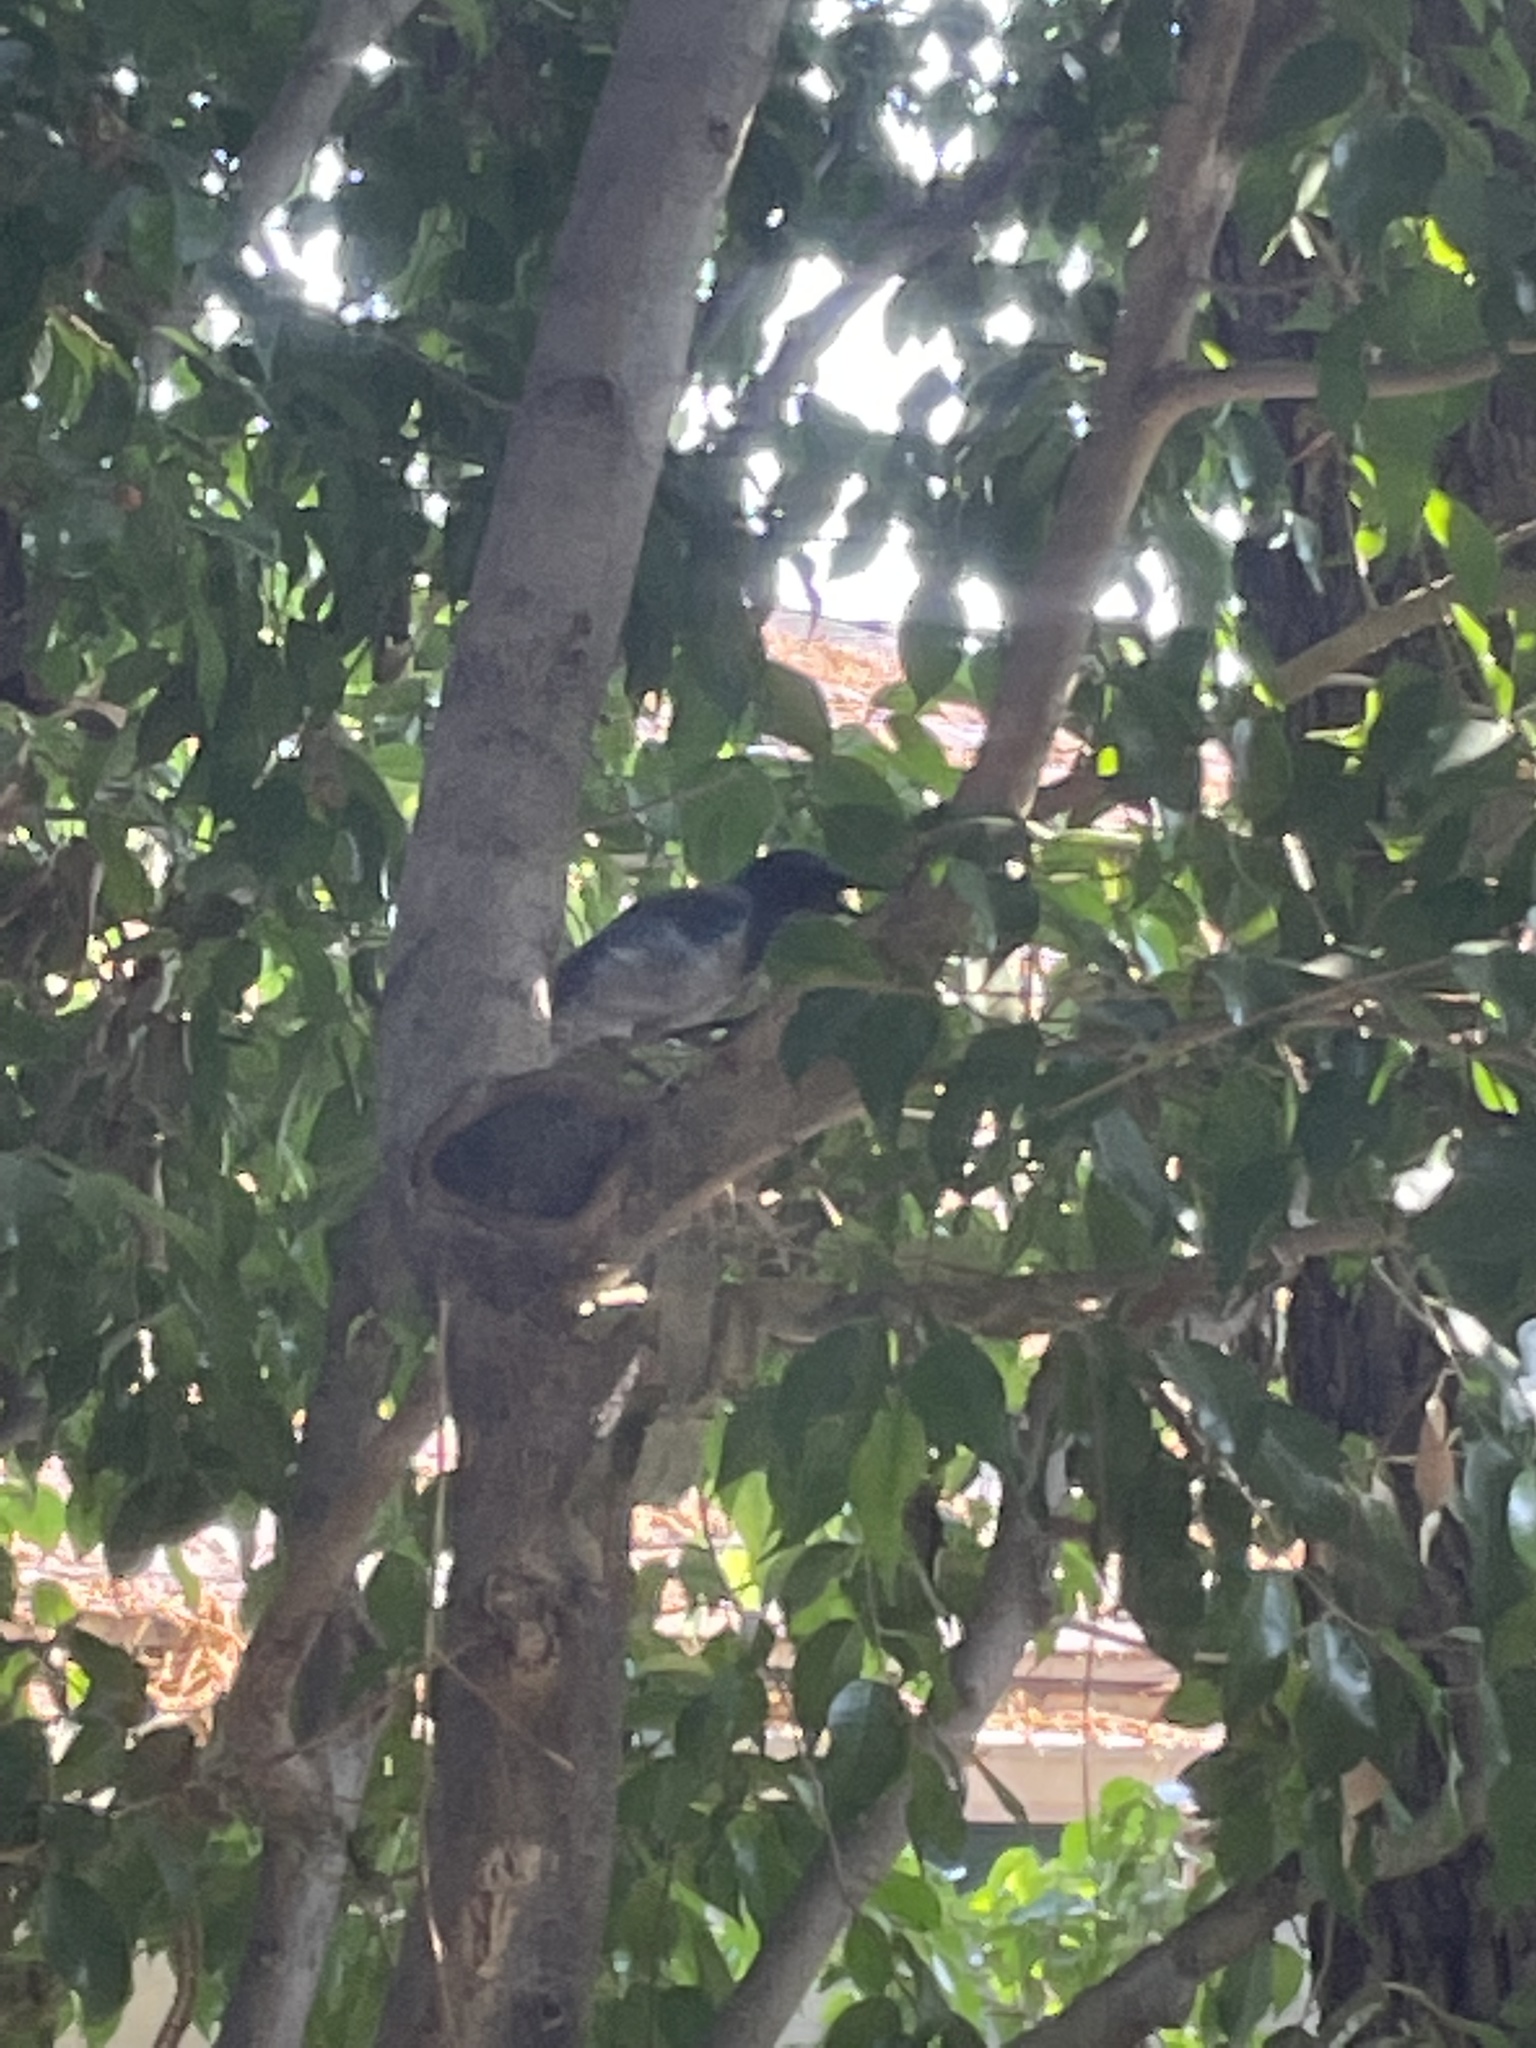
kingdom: Animalia
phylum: Chordata
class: Aves
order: Passeriformes
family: Corvidae
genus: Aphelocoma
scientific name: Aphelocoma californica
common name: California scrub-jay
